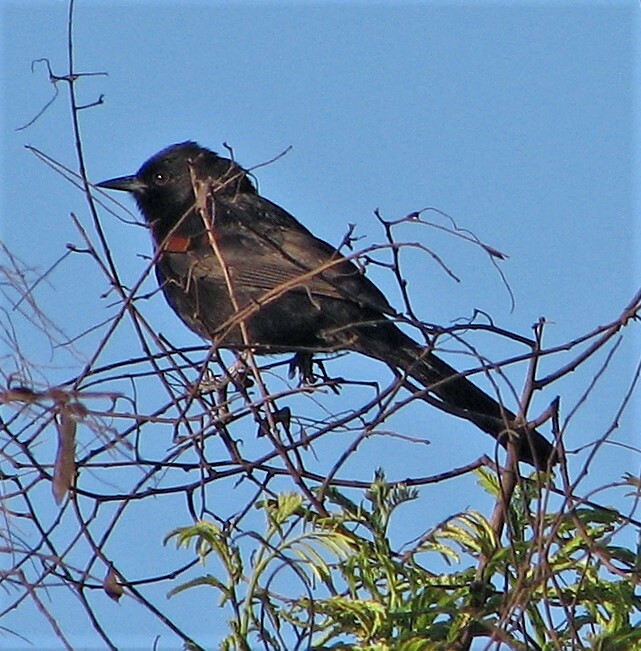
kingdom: Animalia
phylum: Chordata
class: Aves
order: Passeriformes
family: Icteridae
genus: Icterus
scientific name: Icterus cayanensis
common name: Epaulet oriole
